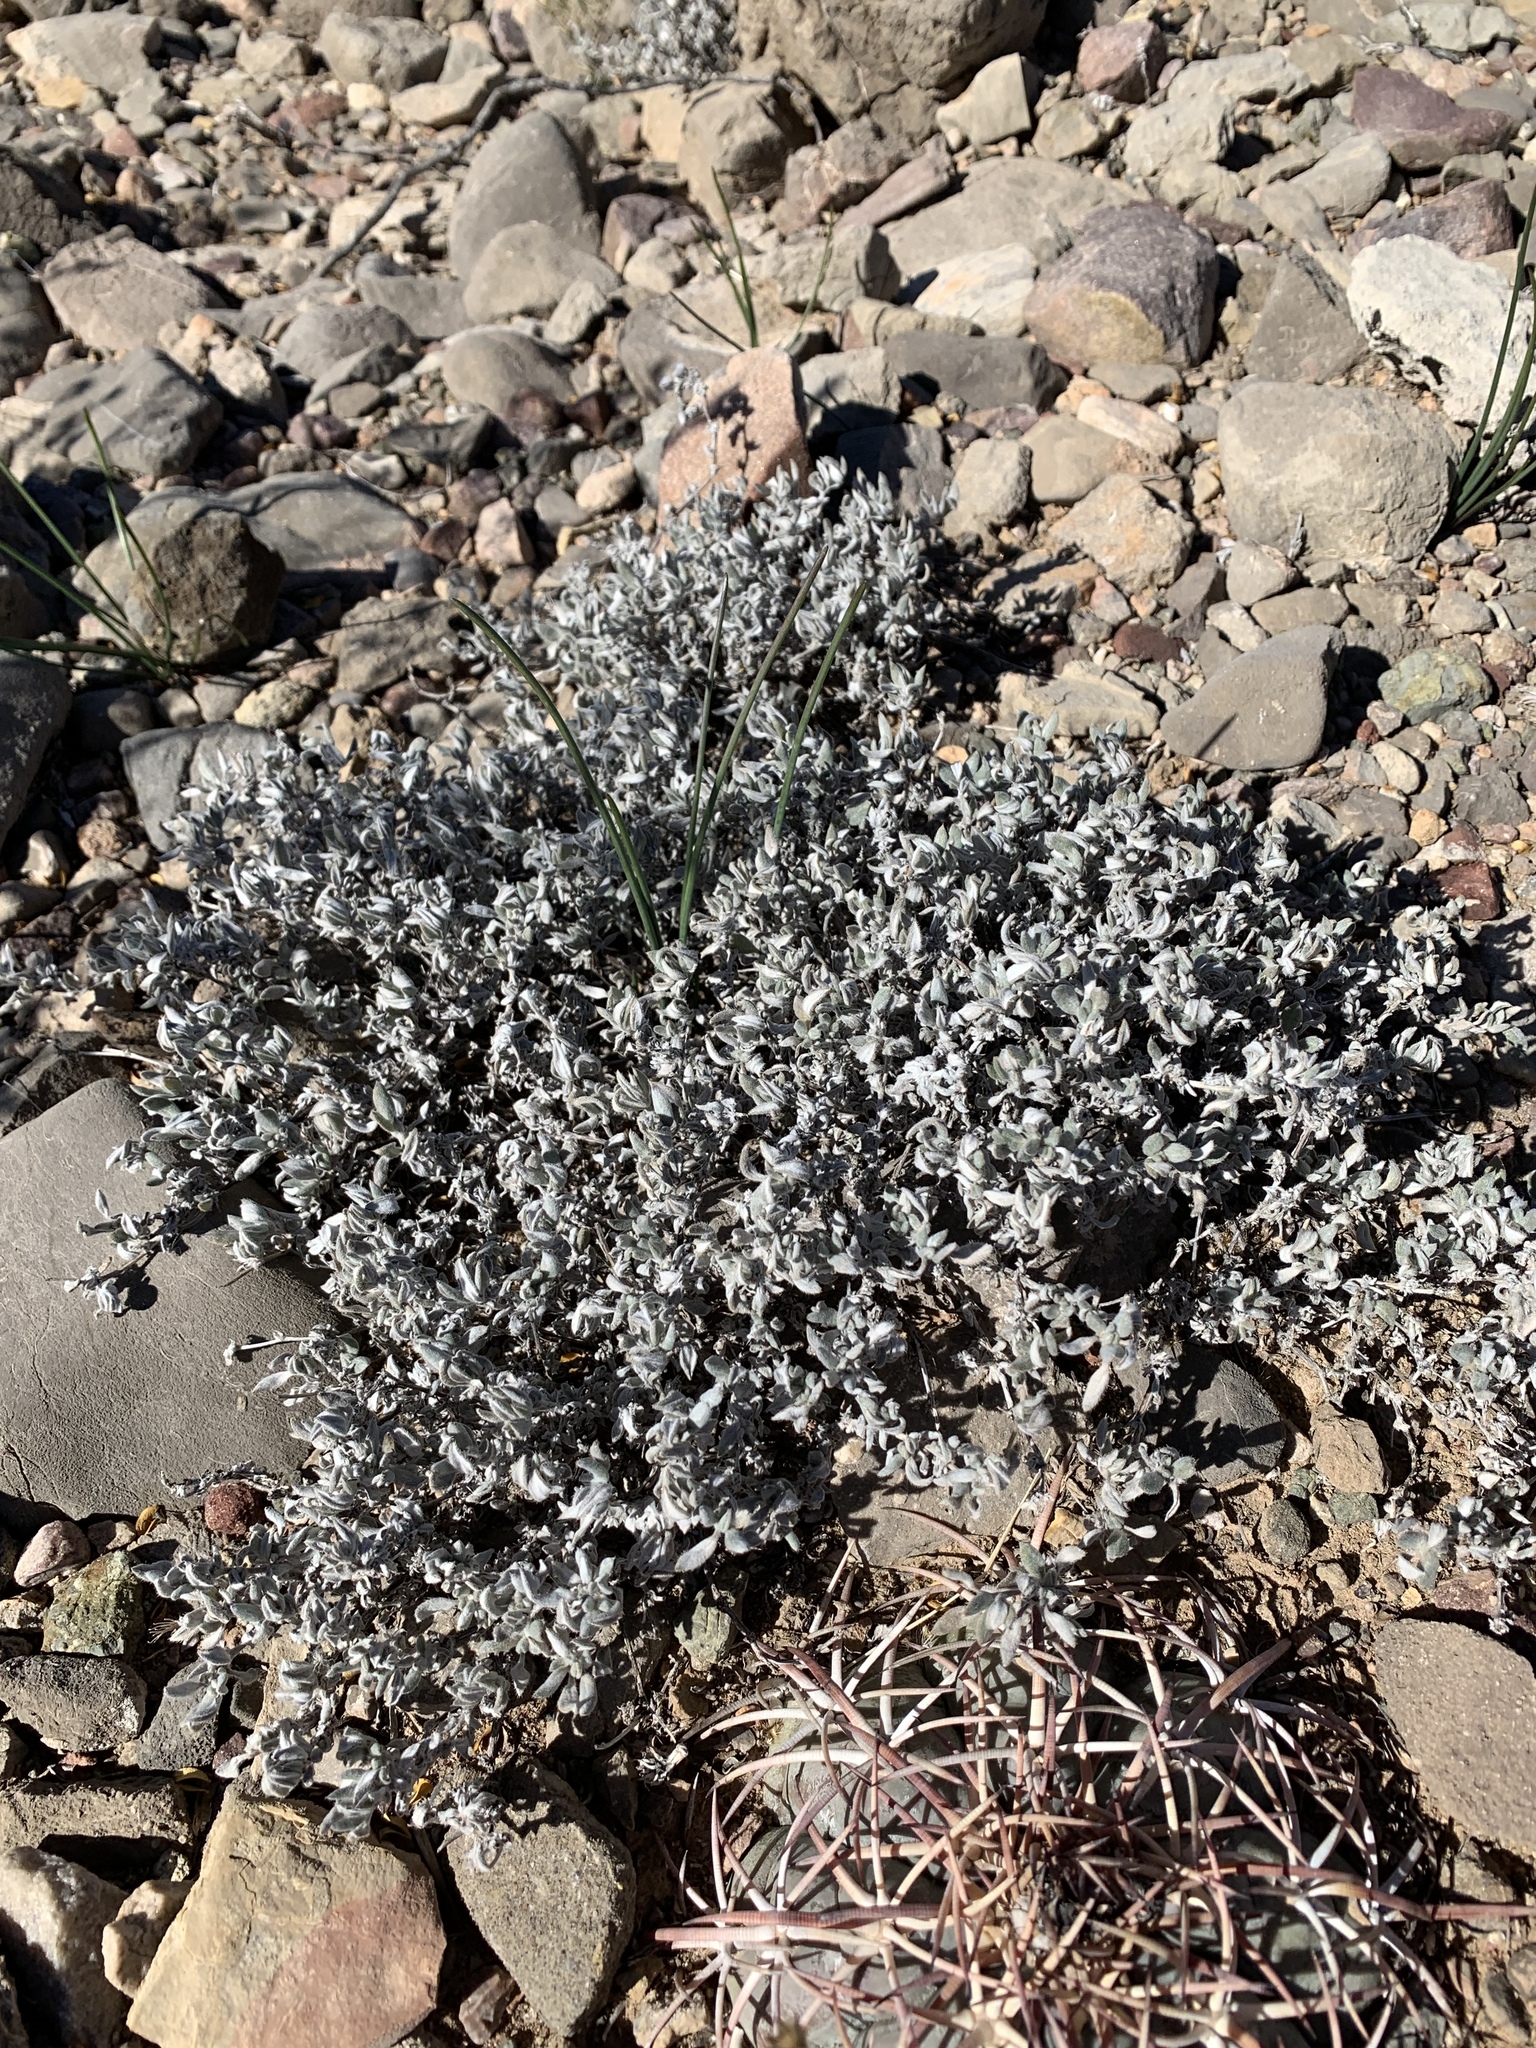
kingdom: Plantae
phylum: Tracheophyta
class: Magnoliopsida
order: Boraginales
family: Ehretiaceae
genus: Tiquilia
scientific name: Tiquilia canescens
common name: Hairy tiquilia
